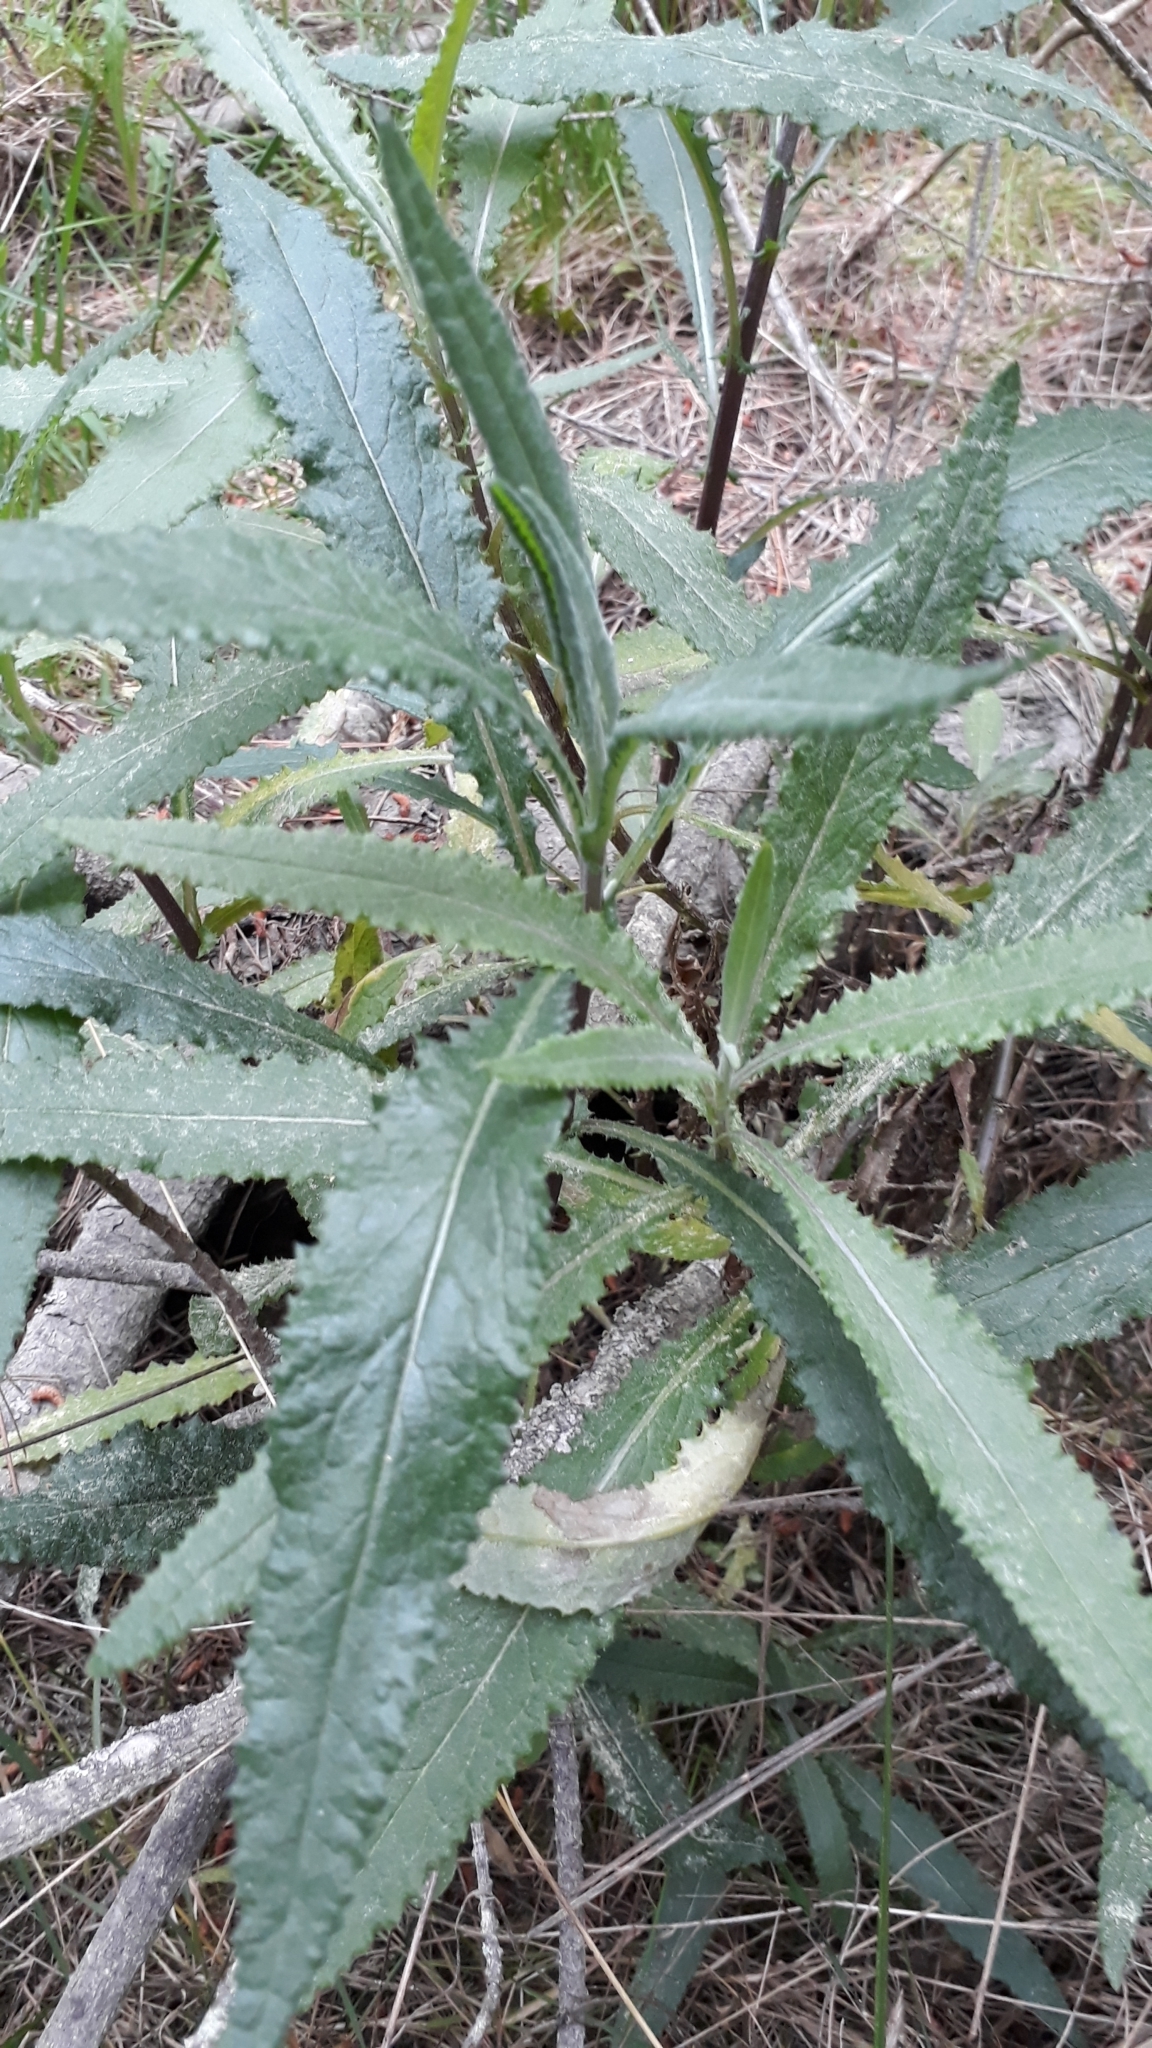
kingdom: Plantae
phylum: Tracheophyta
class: Magnoliopsida
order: Asterales
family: Asteraceae
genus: Senecio
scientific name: Senecio minimus
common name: Toothed fireweed
